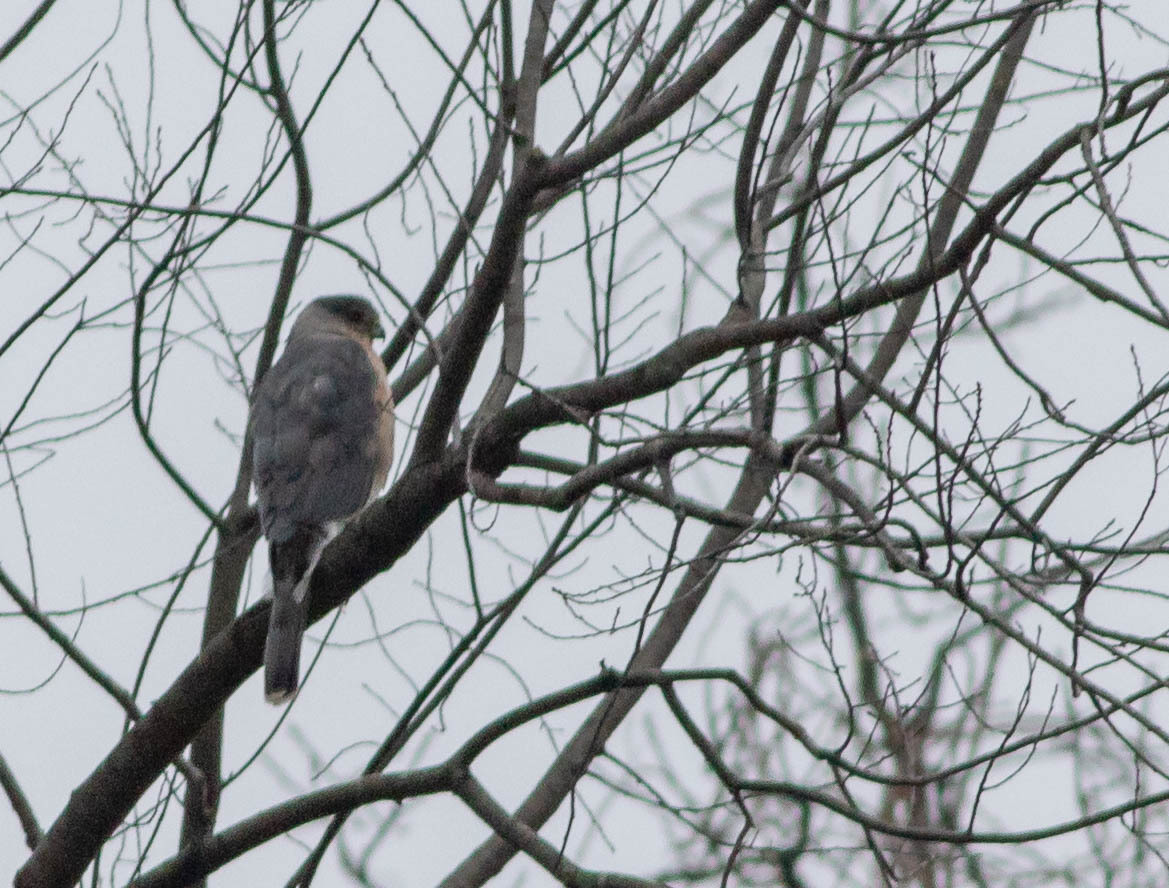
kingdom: Animalia
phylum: Chordata
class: Aves
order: Accipitriformes
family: Accipitridae
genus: Accipiter
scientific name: Accipiter cooperii
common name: Cooper's hawk
